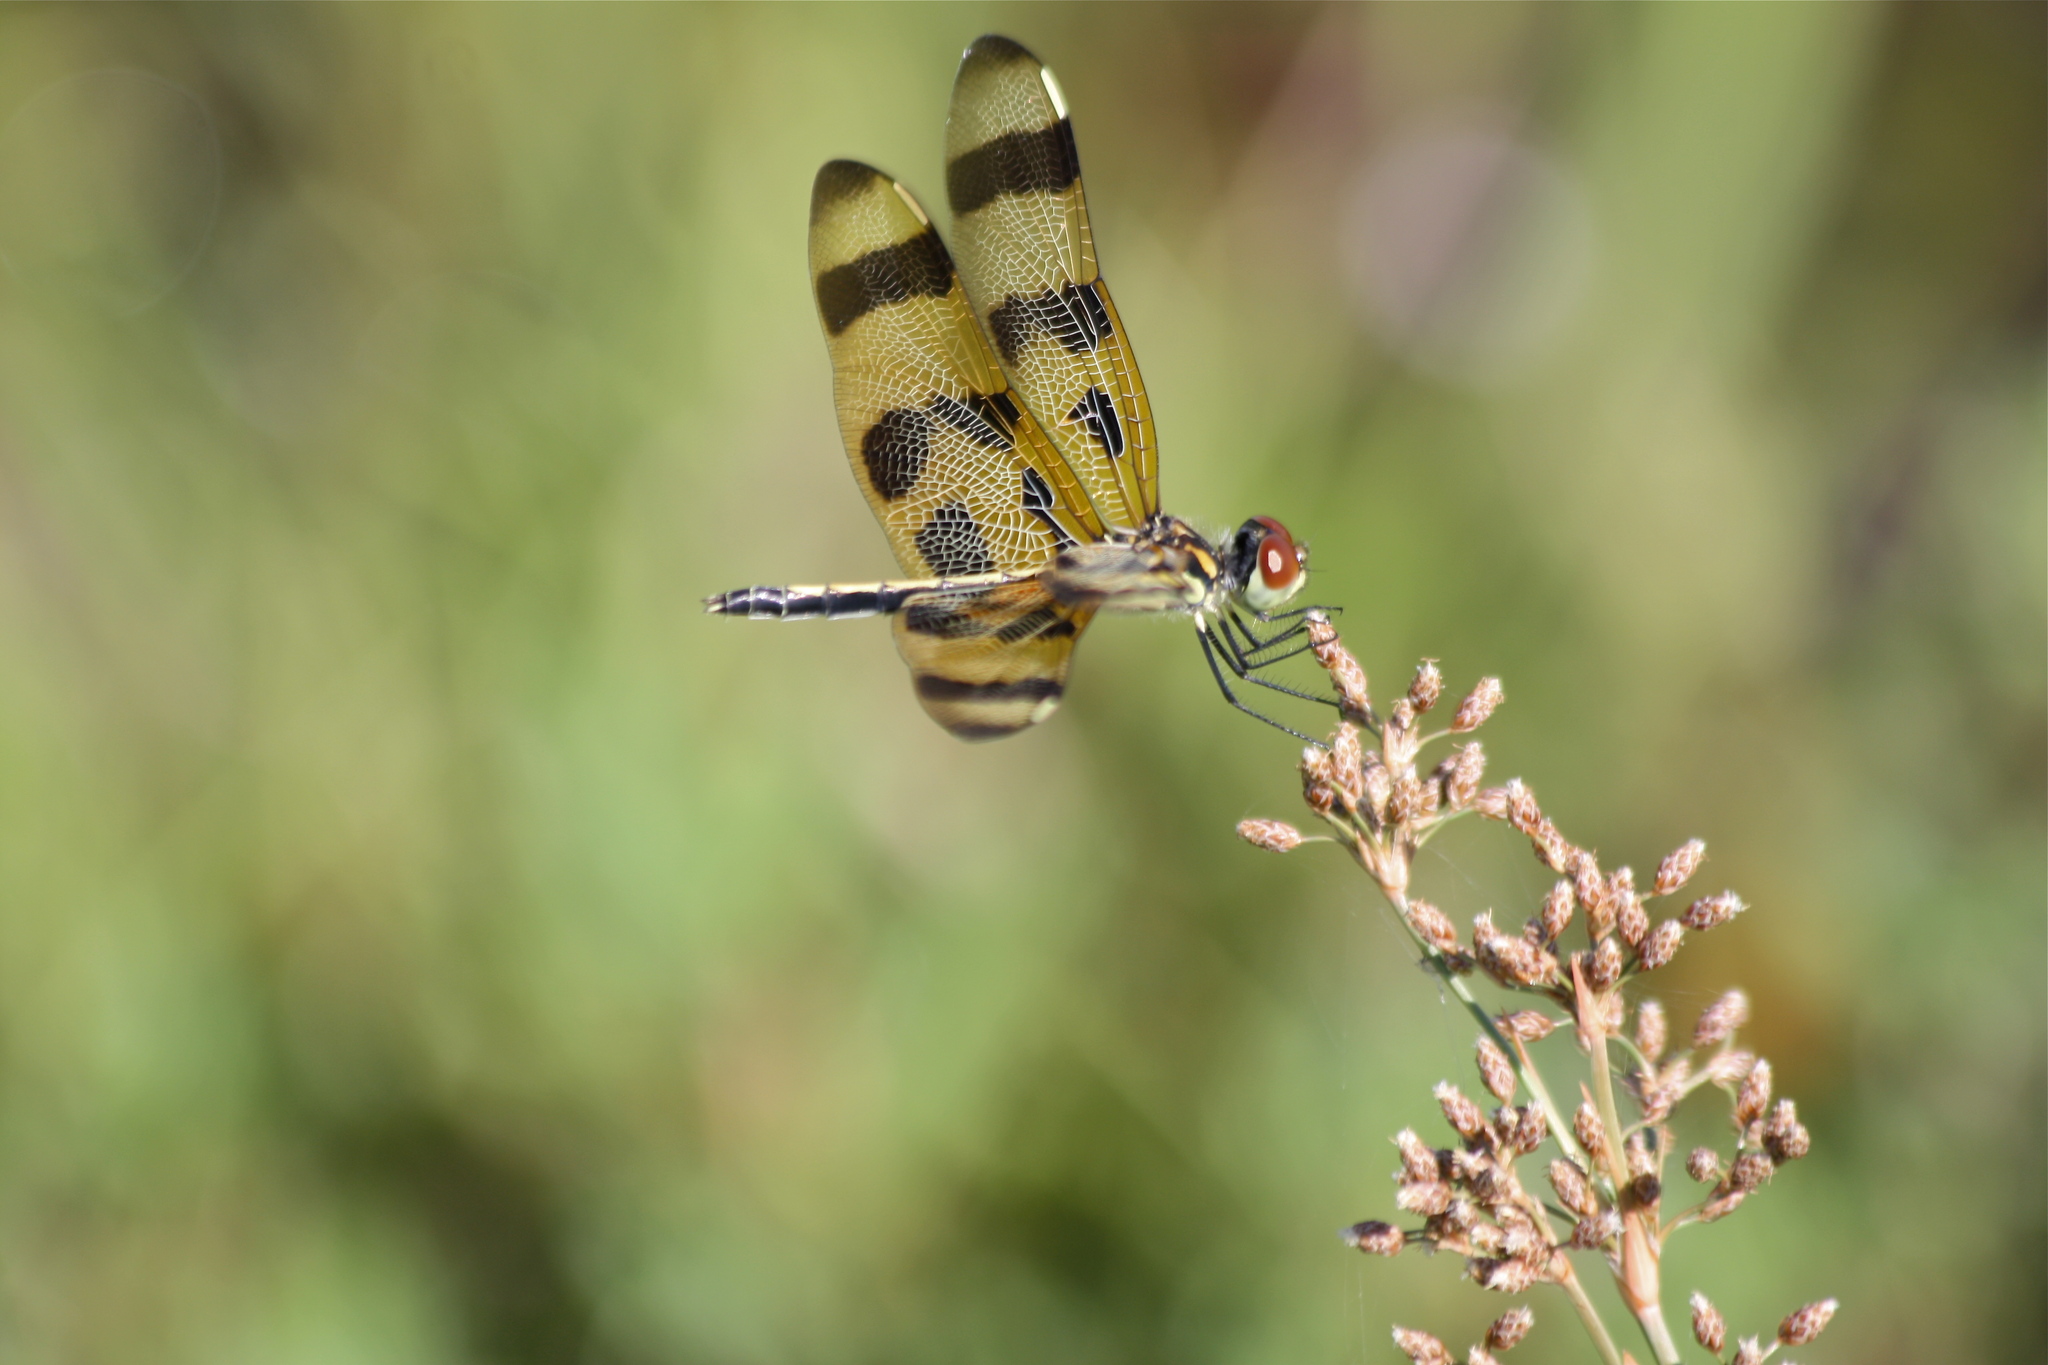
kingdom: Animalia
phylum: Arthropoda
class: Insecta
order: Odonata
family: Libellulidae
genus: Celithemis
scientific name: Celithemis eponina
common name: Halloween pennant
